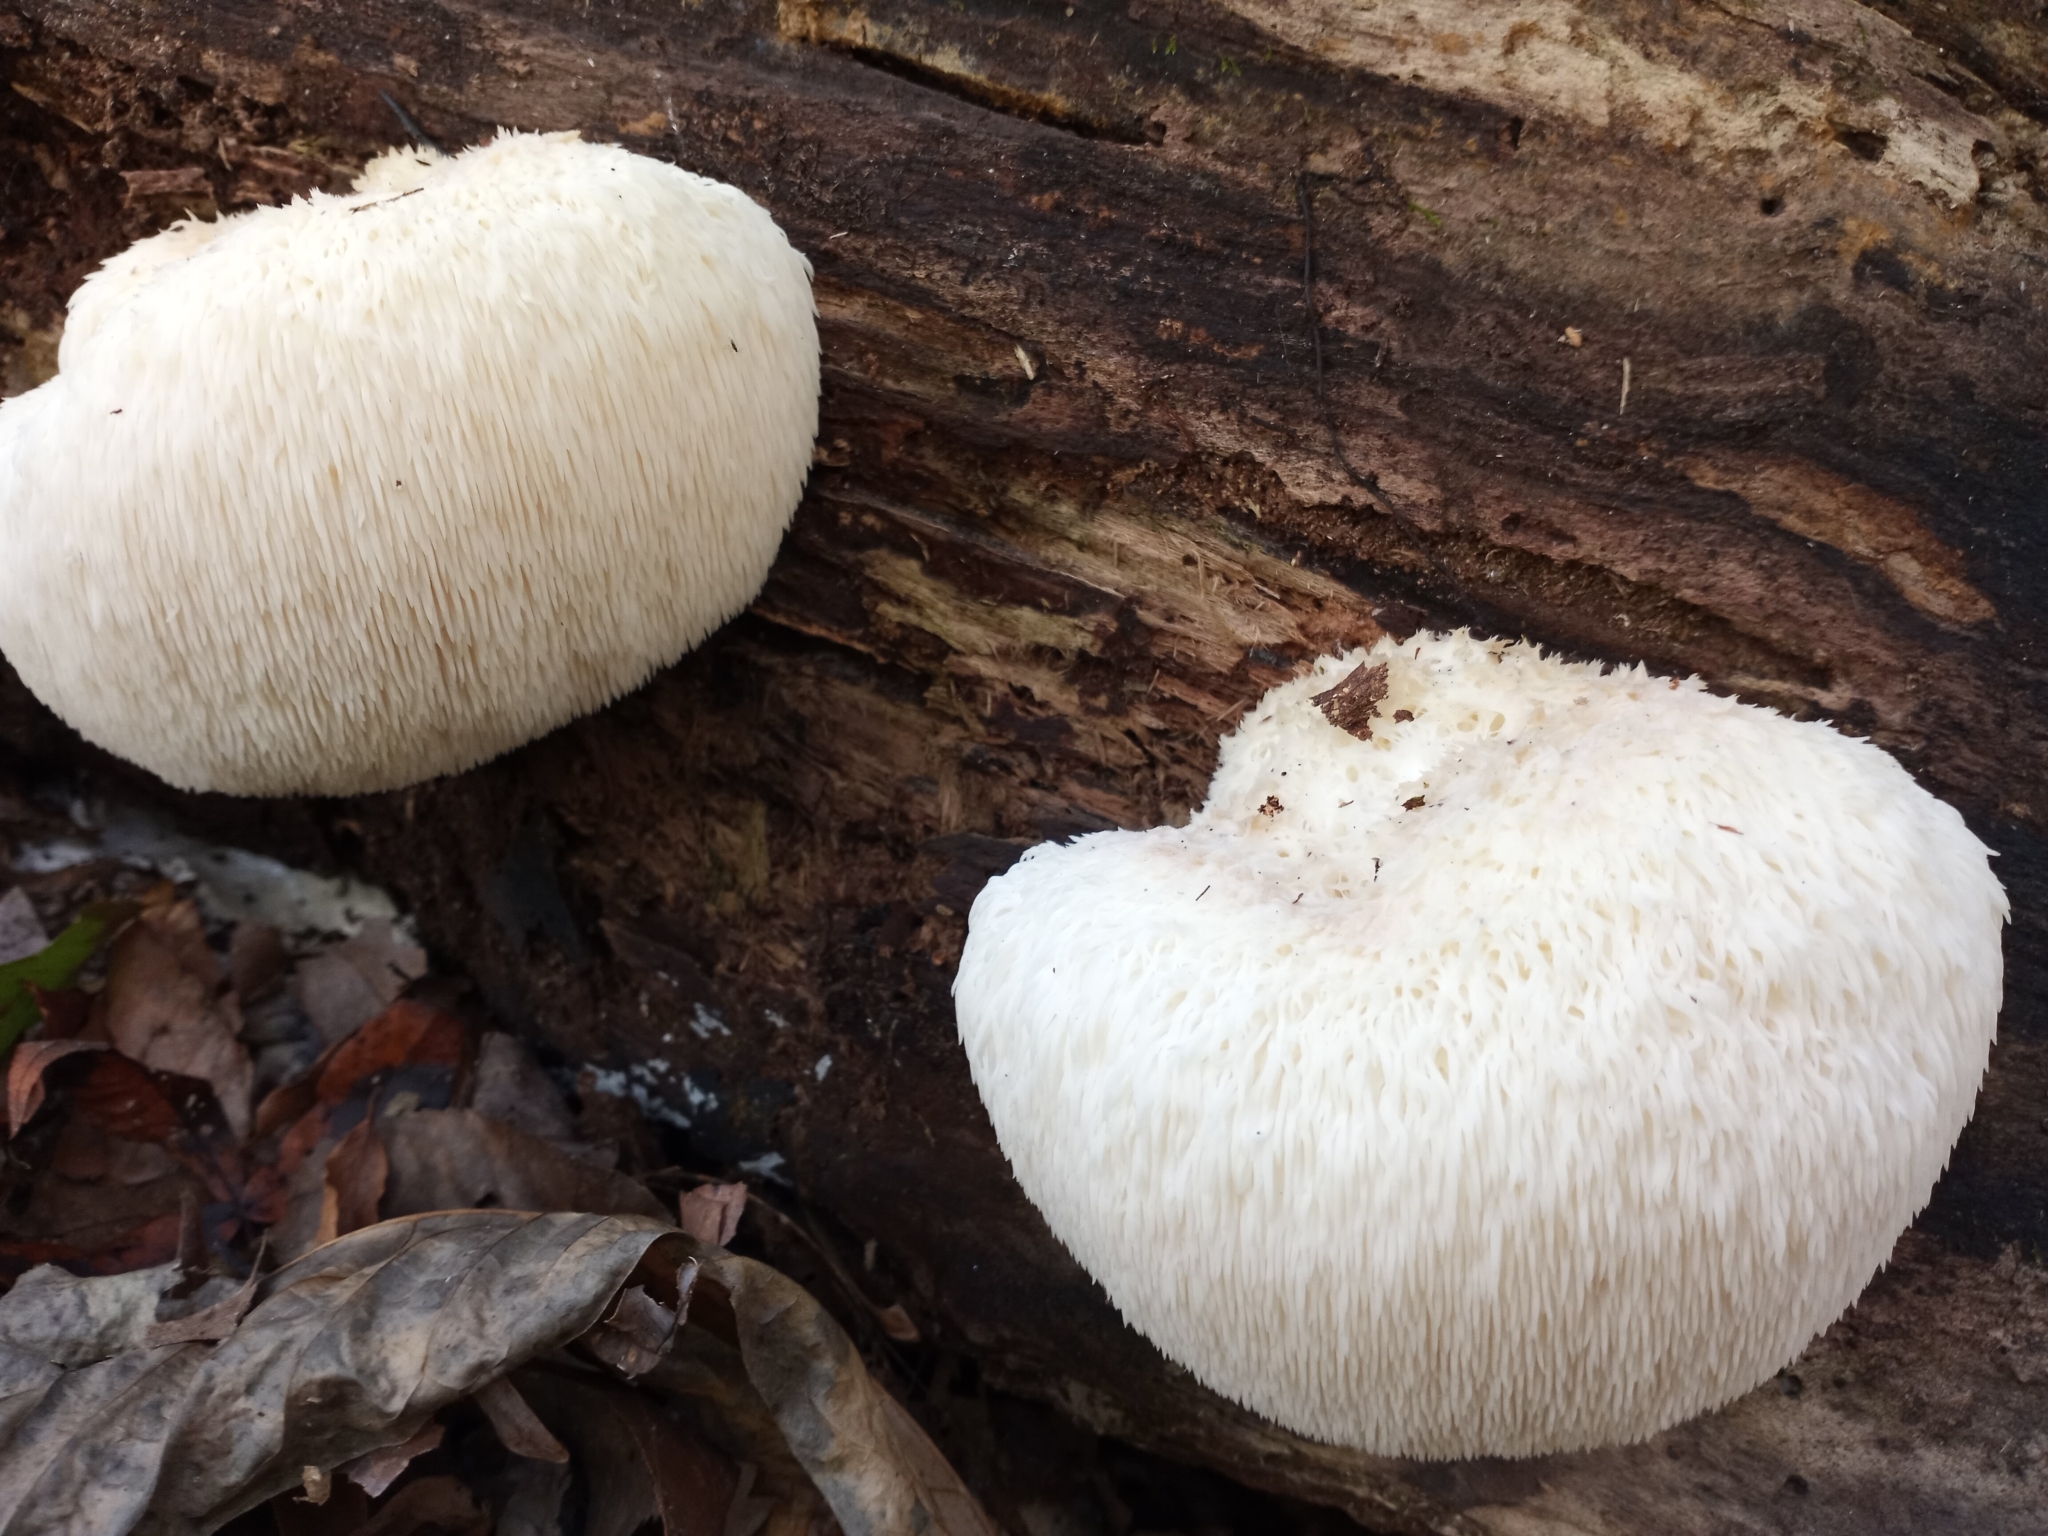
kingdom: Fungi
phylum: Basidiomycota
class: Agaricomycetes
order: Russulales
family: Hericiaceae
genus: Hericium
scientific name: Hericium erinaceus
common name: Bearded tooth
